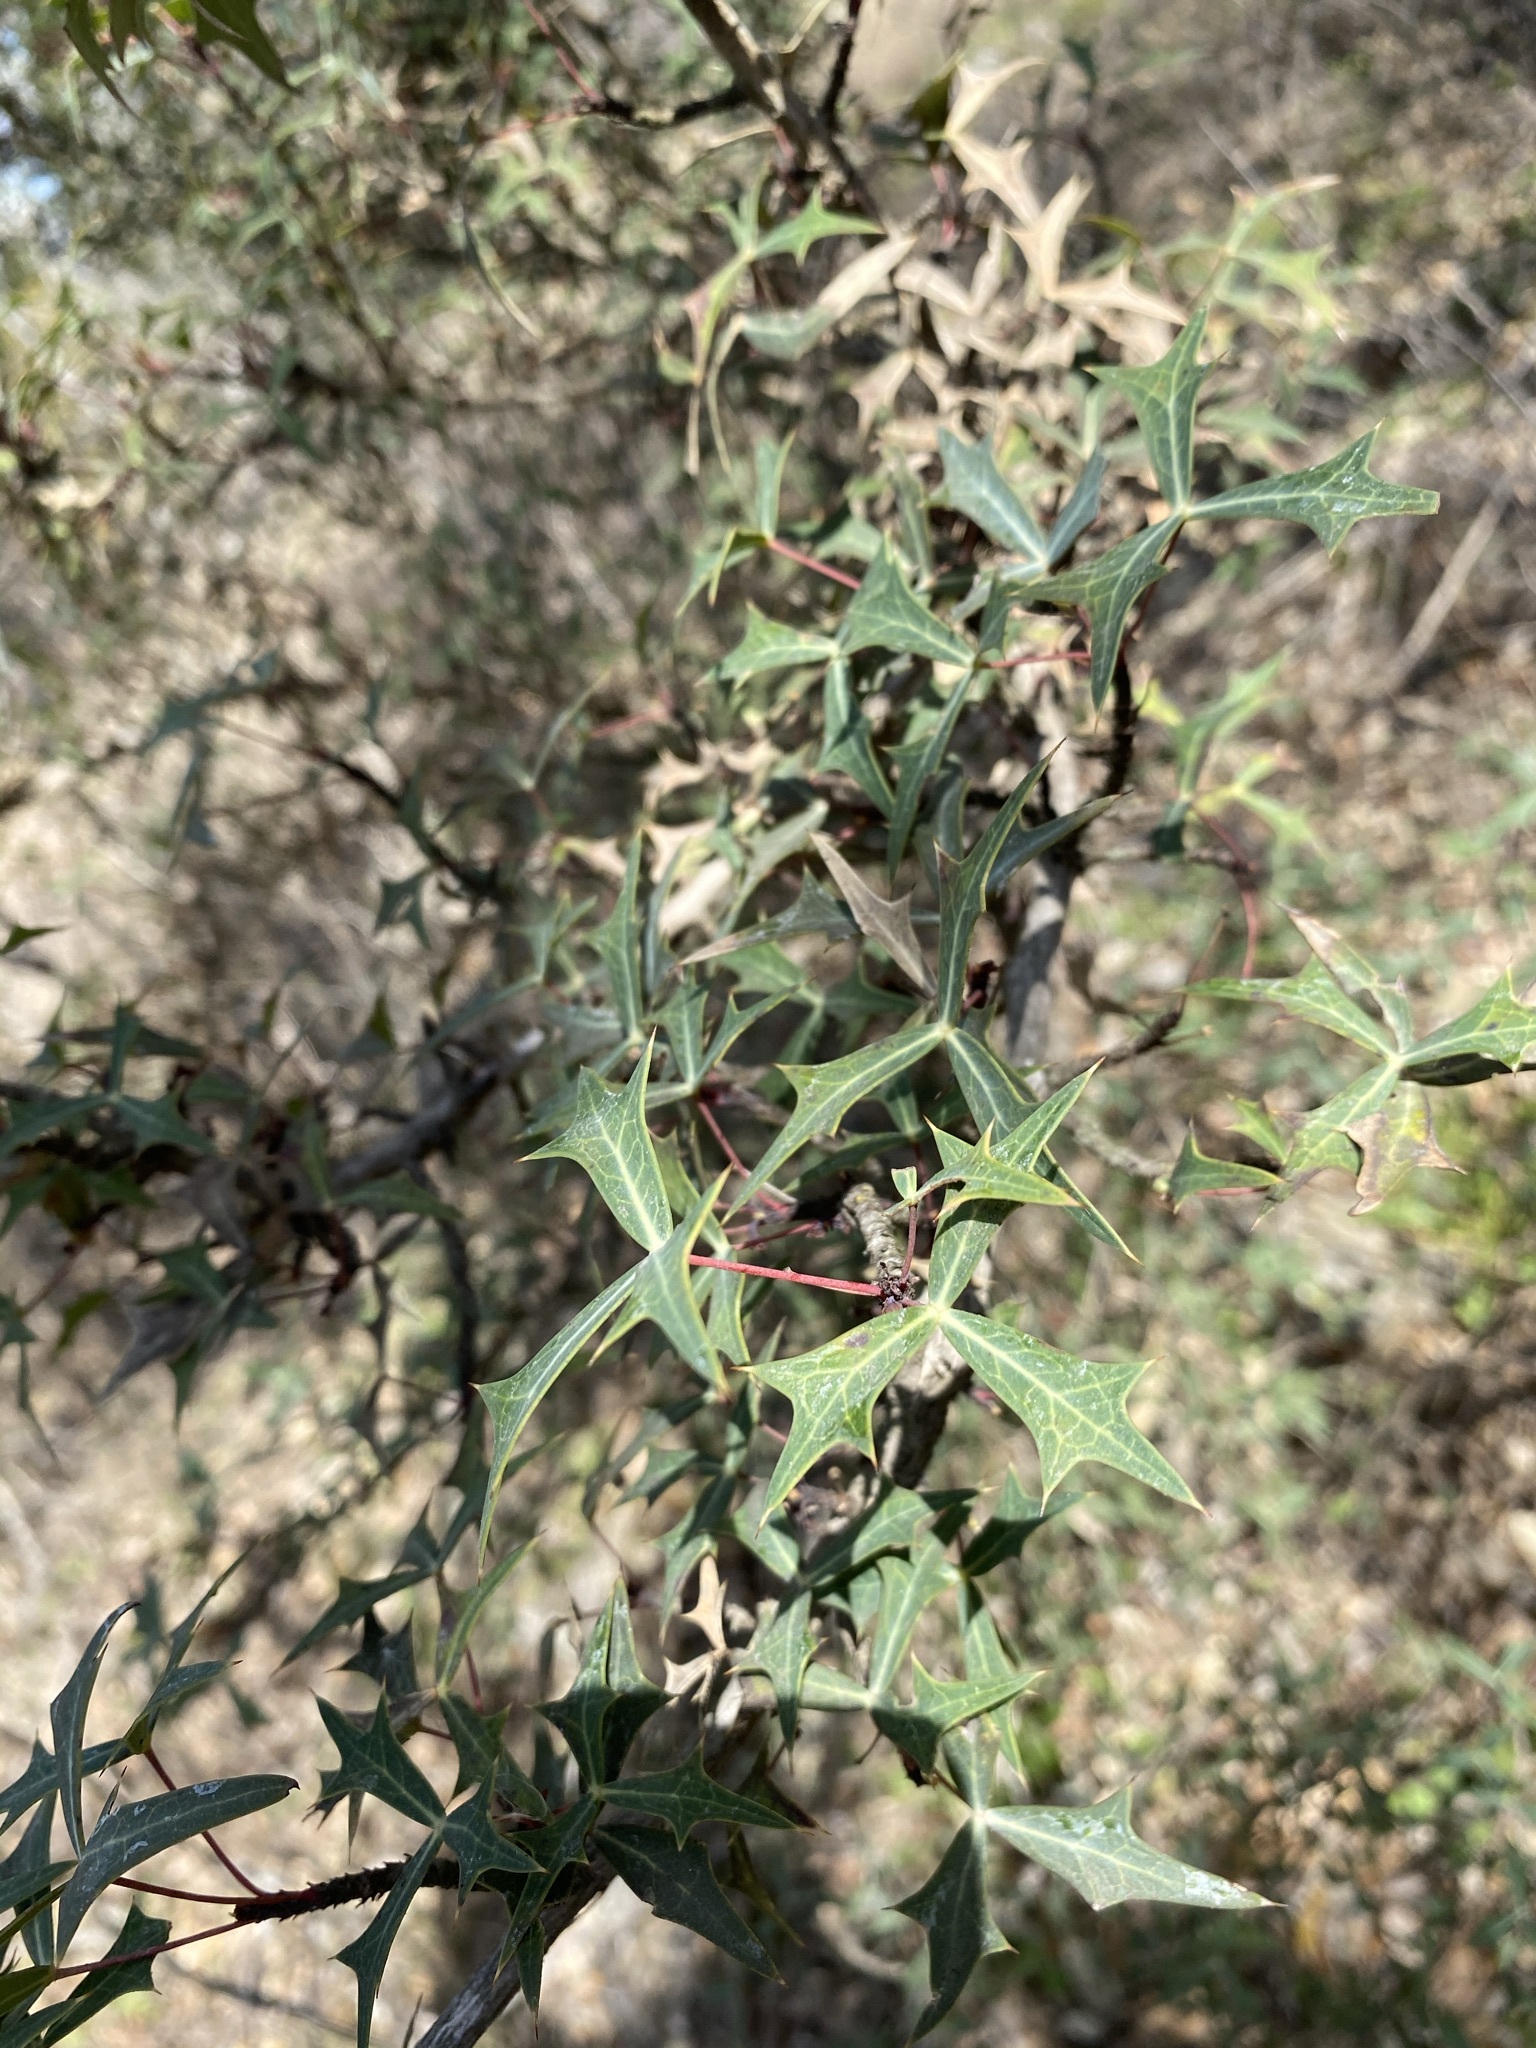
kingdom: Plantae
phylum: Tracheophyta
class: Magnoliopsida
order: Ranunculales
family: Berberidaceae
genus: Alloberberis
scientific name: Alloberberis trifoliolata
